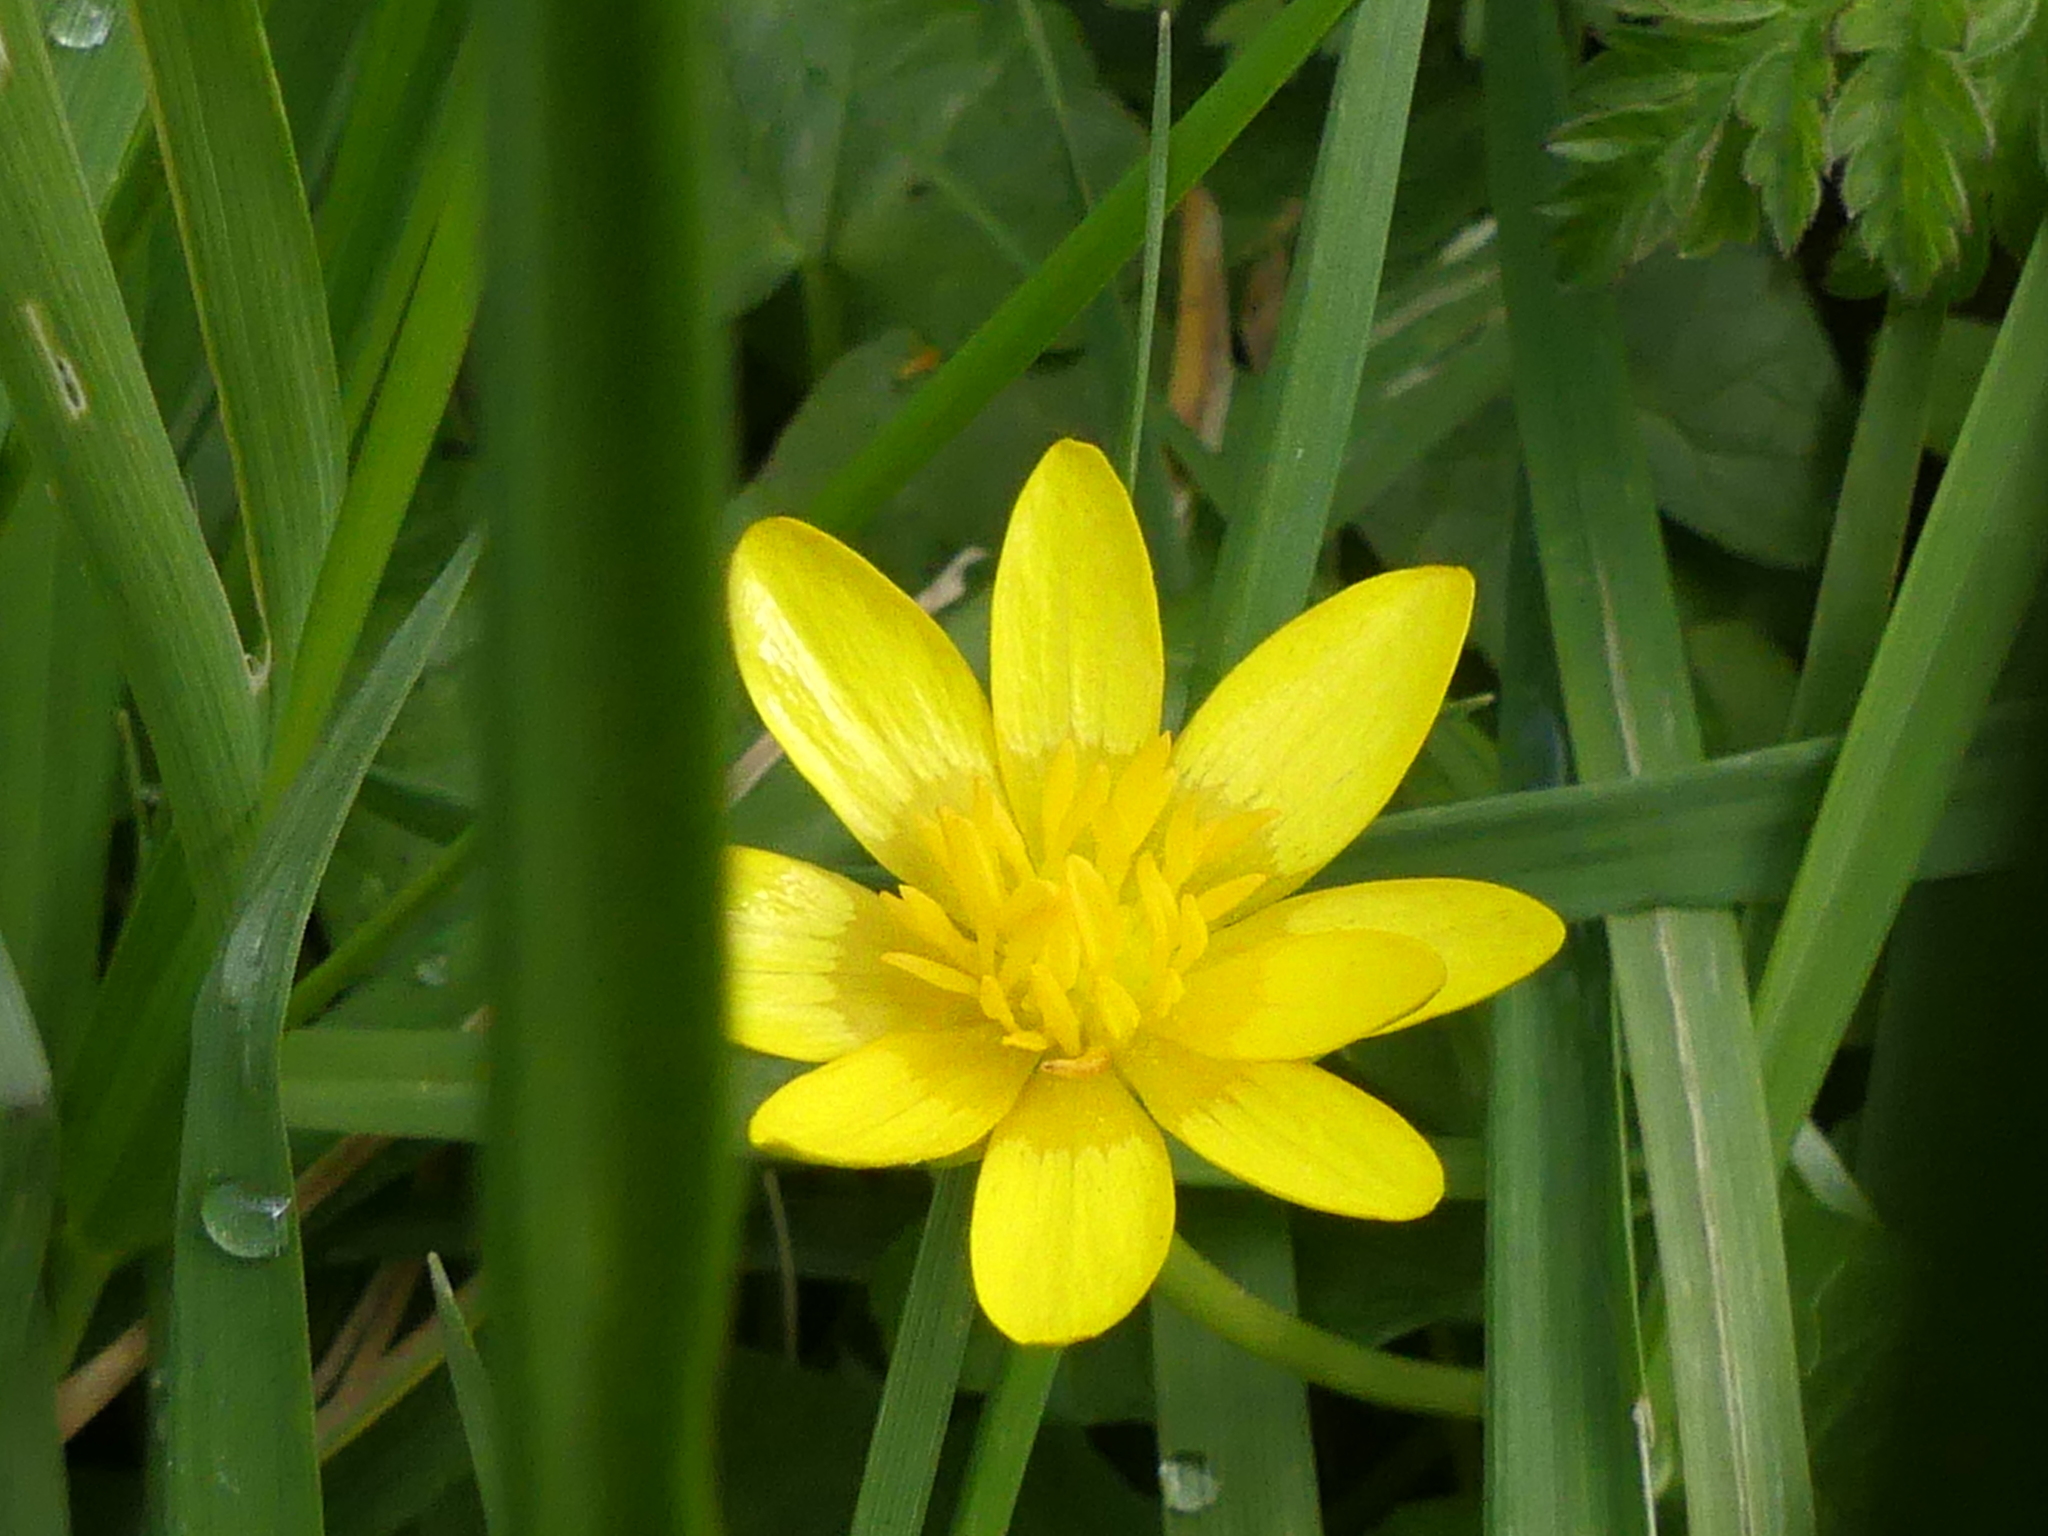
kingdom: Plantae
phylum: Tracheophyta
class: Magnoliopsida
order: Ranunculales
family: Ranunculaceae
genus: Ficaria
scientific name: Ficaria verna
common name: Lesser celandine
